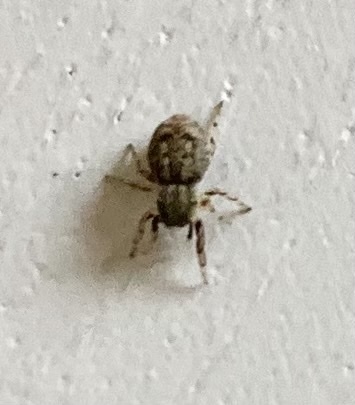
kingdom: Animalia
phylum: Arthropoda
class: Arachnida
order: Araneae
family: Salticidae
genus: Ballus
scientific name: Ballus chalybeius
